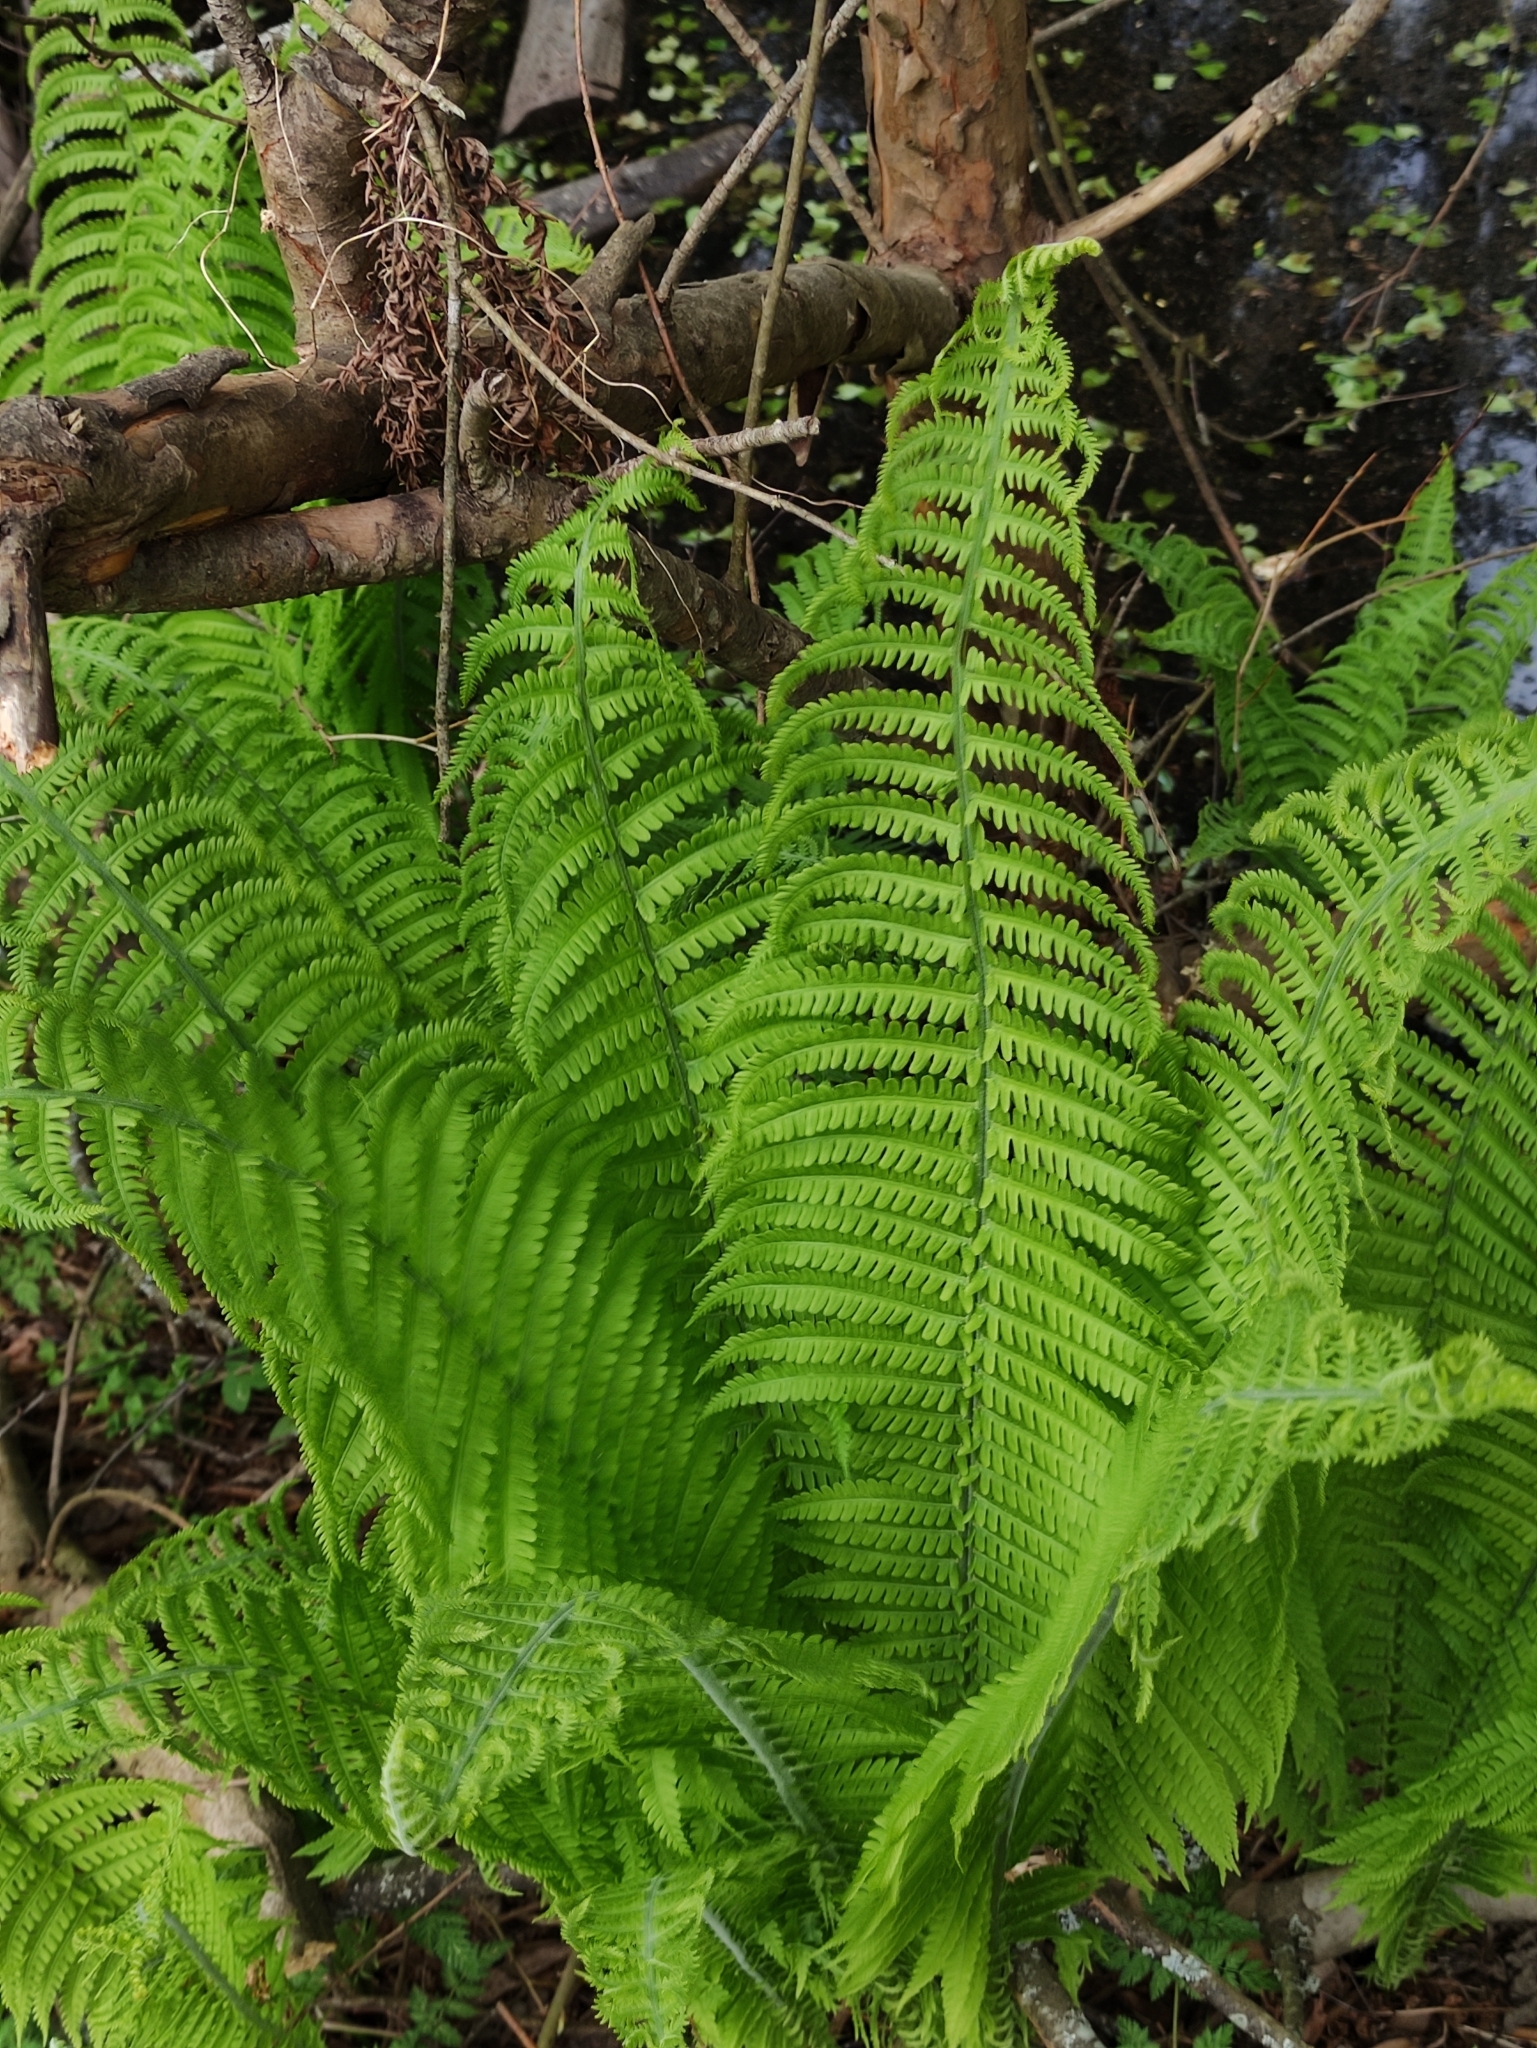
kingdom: Plantae
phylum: Tracheophyta
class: Polypodiopsida
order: Polypodiales
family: Onocleaceae
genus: Matteuccia
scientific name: Matteuccia struthiopteris
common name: Ostrich fern
